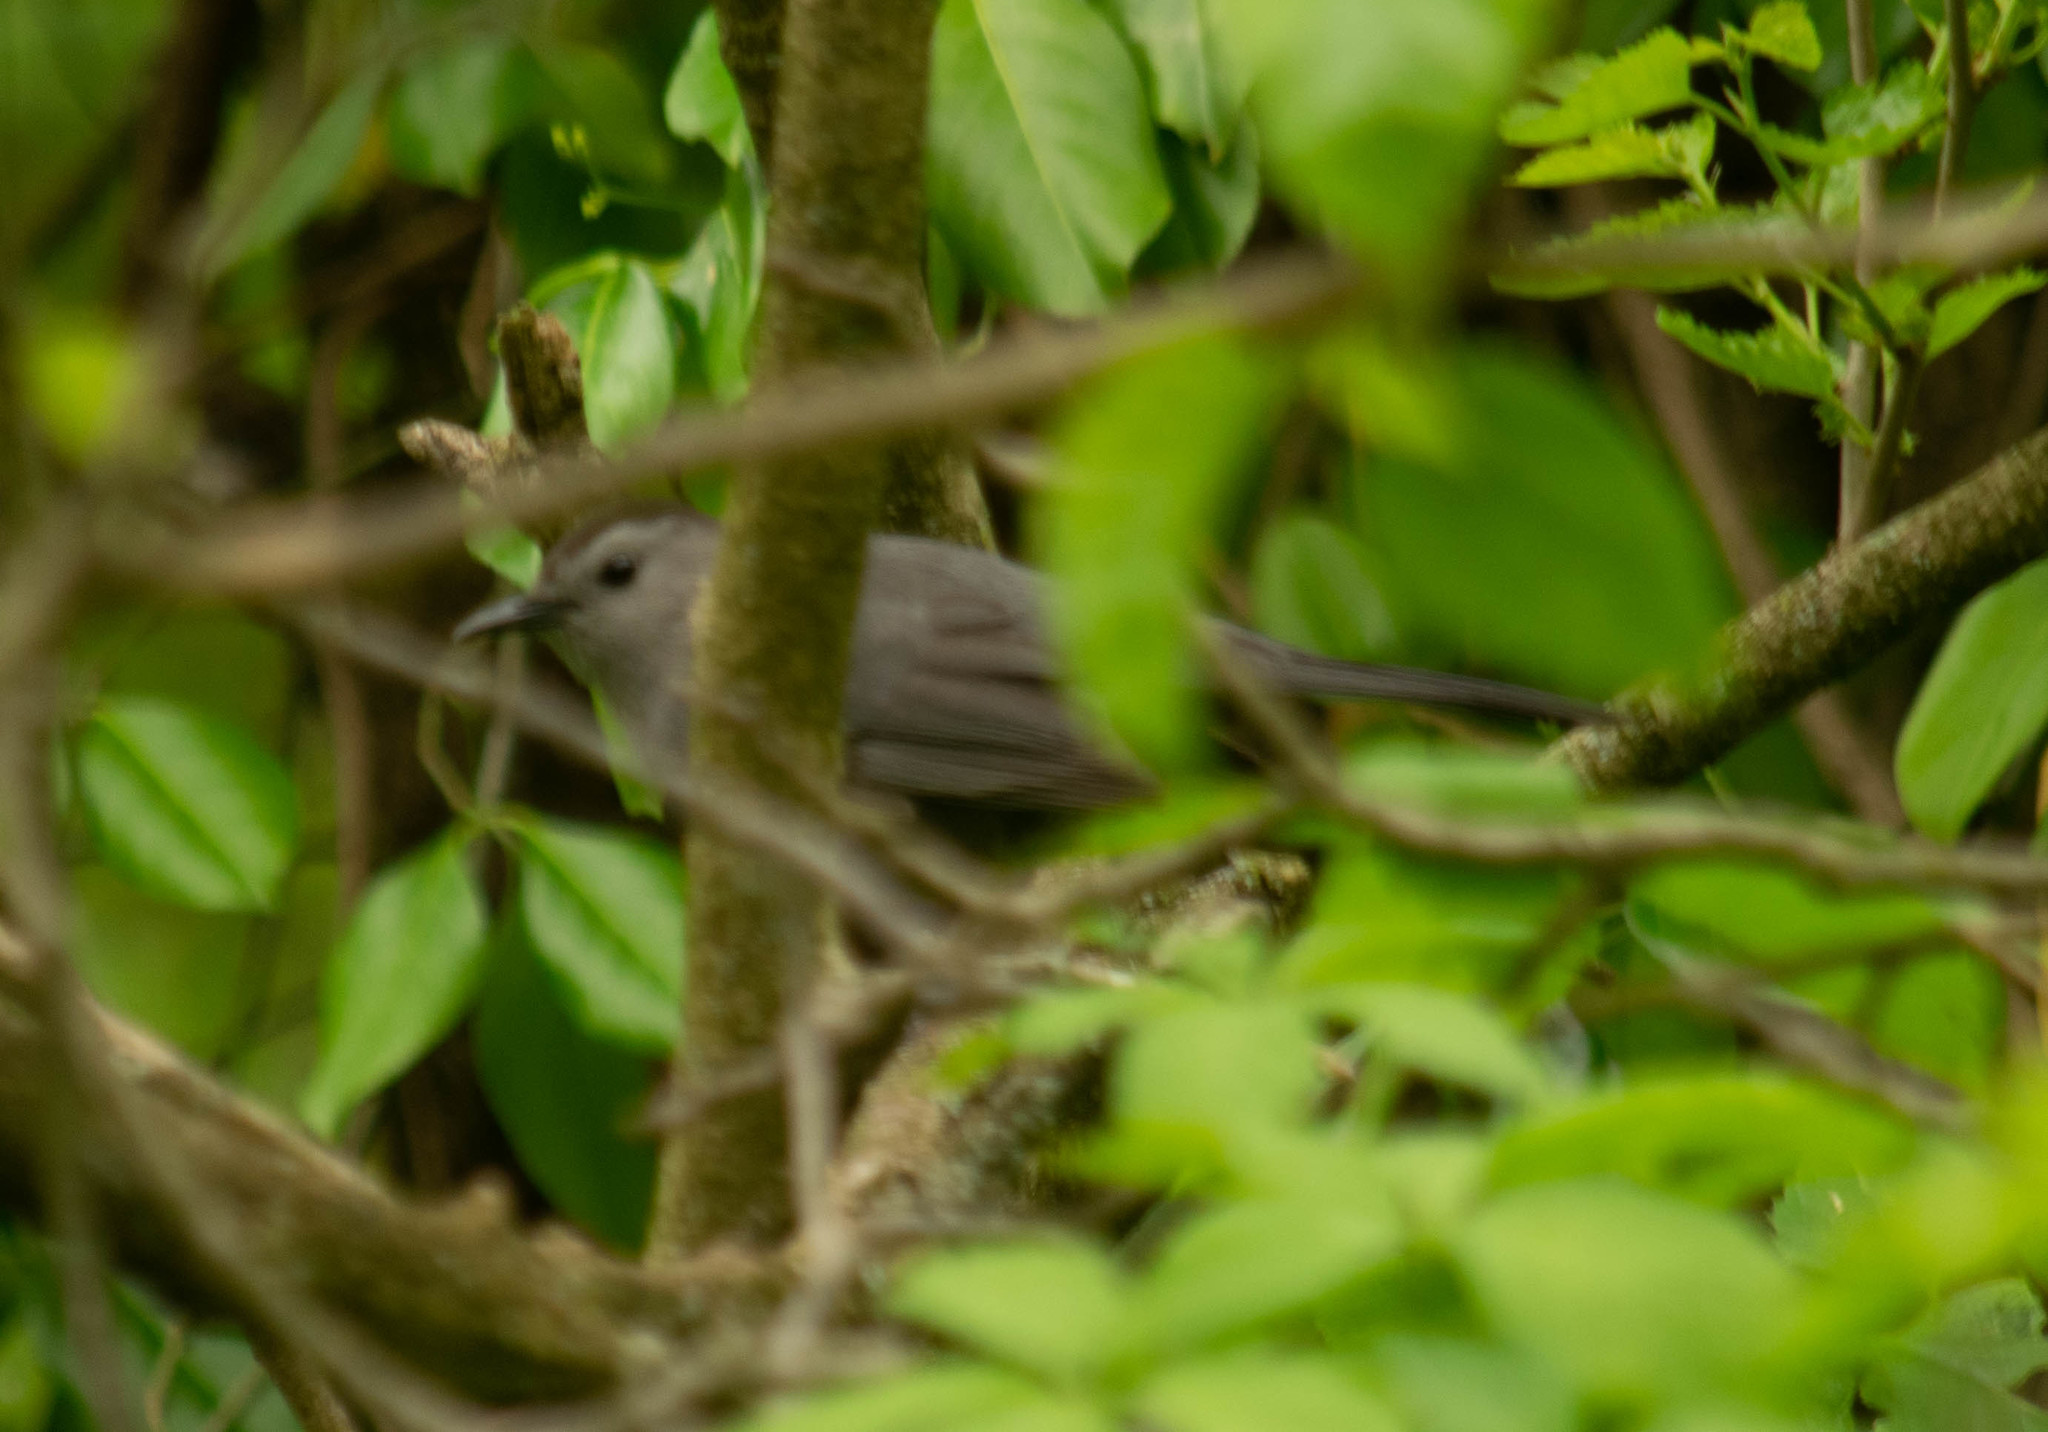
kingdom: Animalia
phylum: Chordata
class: Aves
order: Passeriformes
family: Mimidae
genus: Dumetella
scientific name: Dumetella carolinensis
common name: Gray catbird
